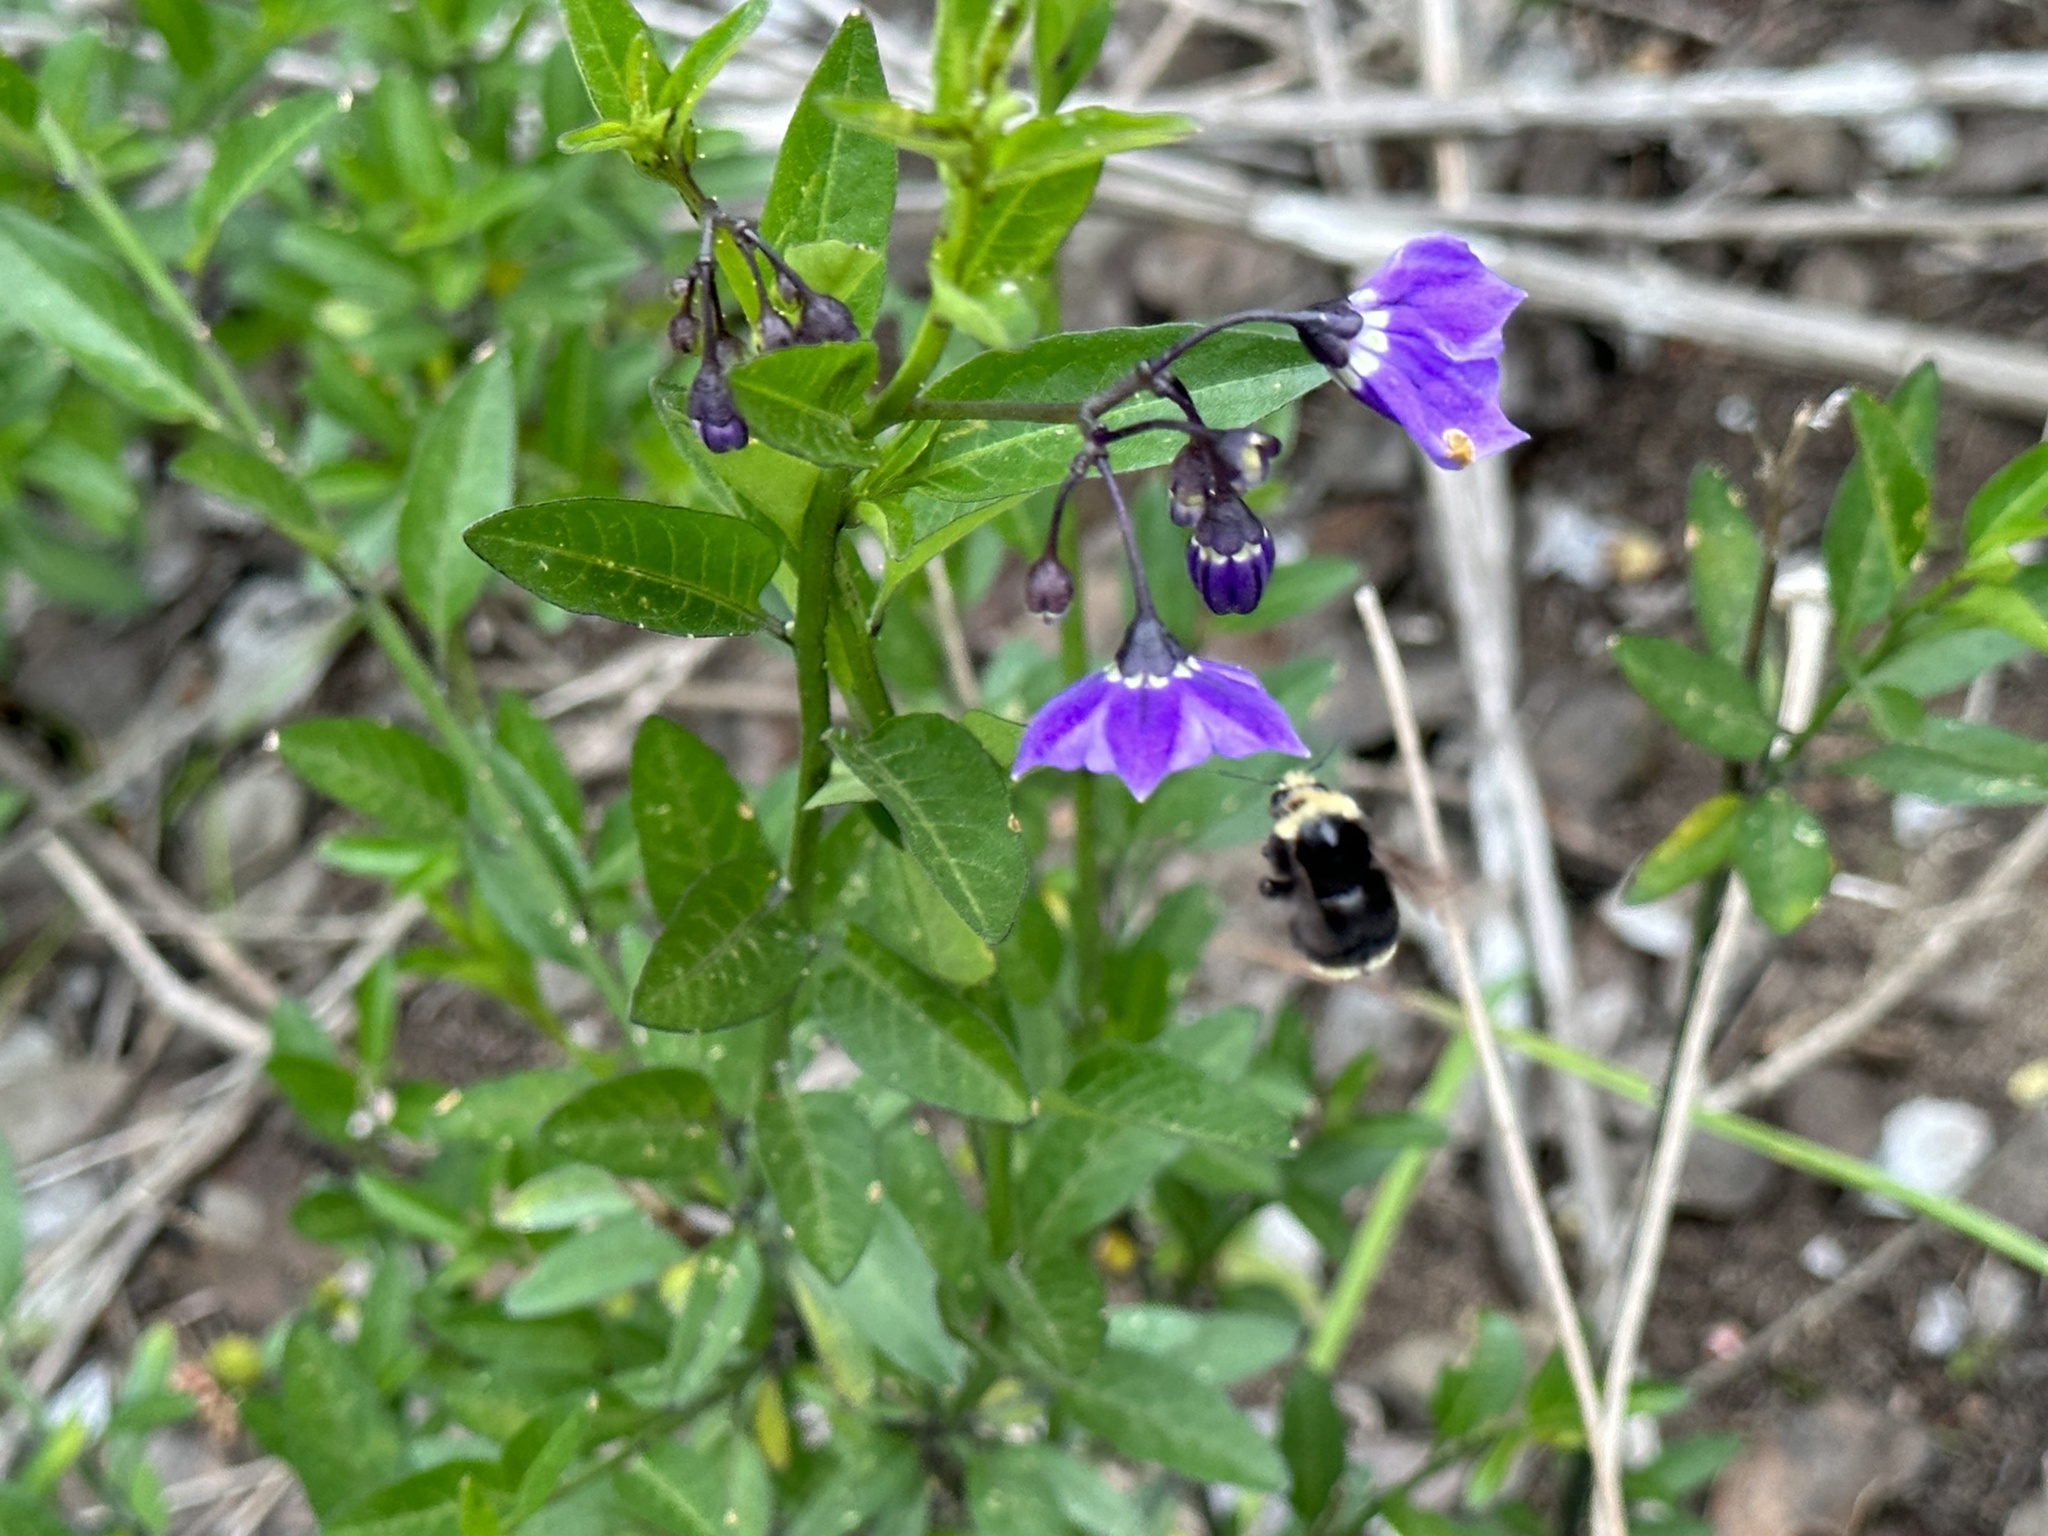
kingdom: Animalia
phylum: Arthropoda
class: Insecta
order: Hymenoptera
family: Apidae
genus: Bombus
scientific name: Bombus vosnesenskii
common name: Vosnesensky bumble bee
